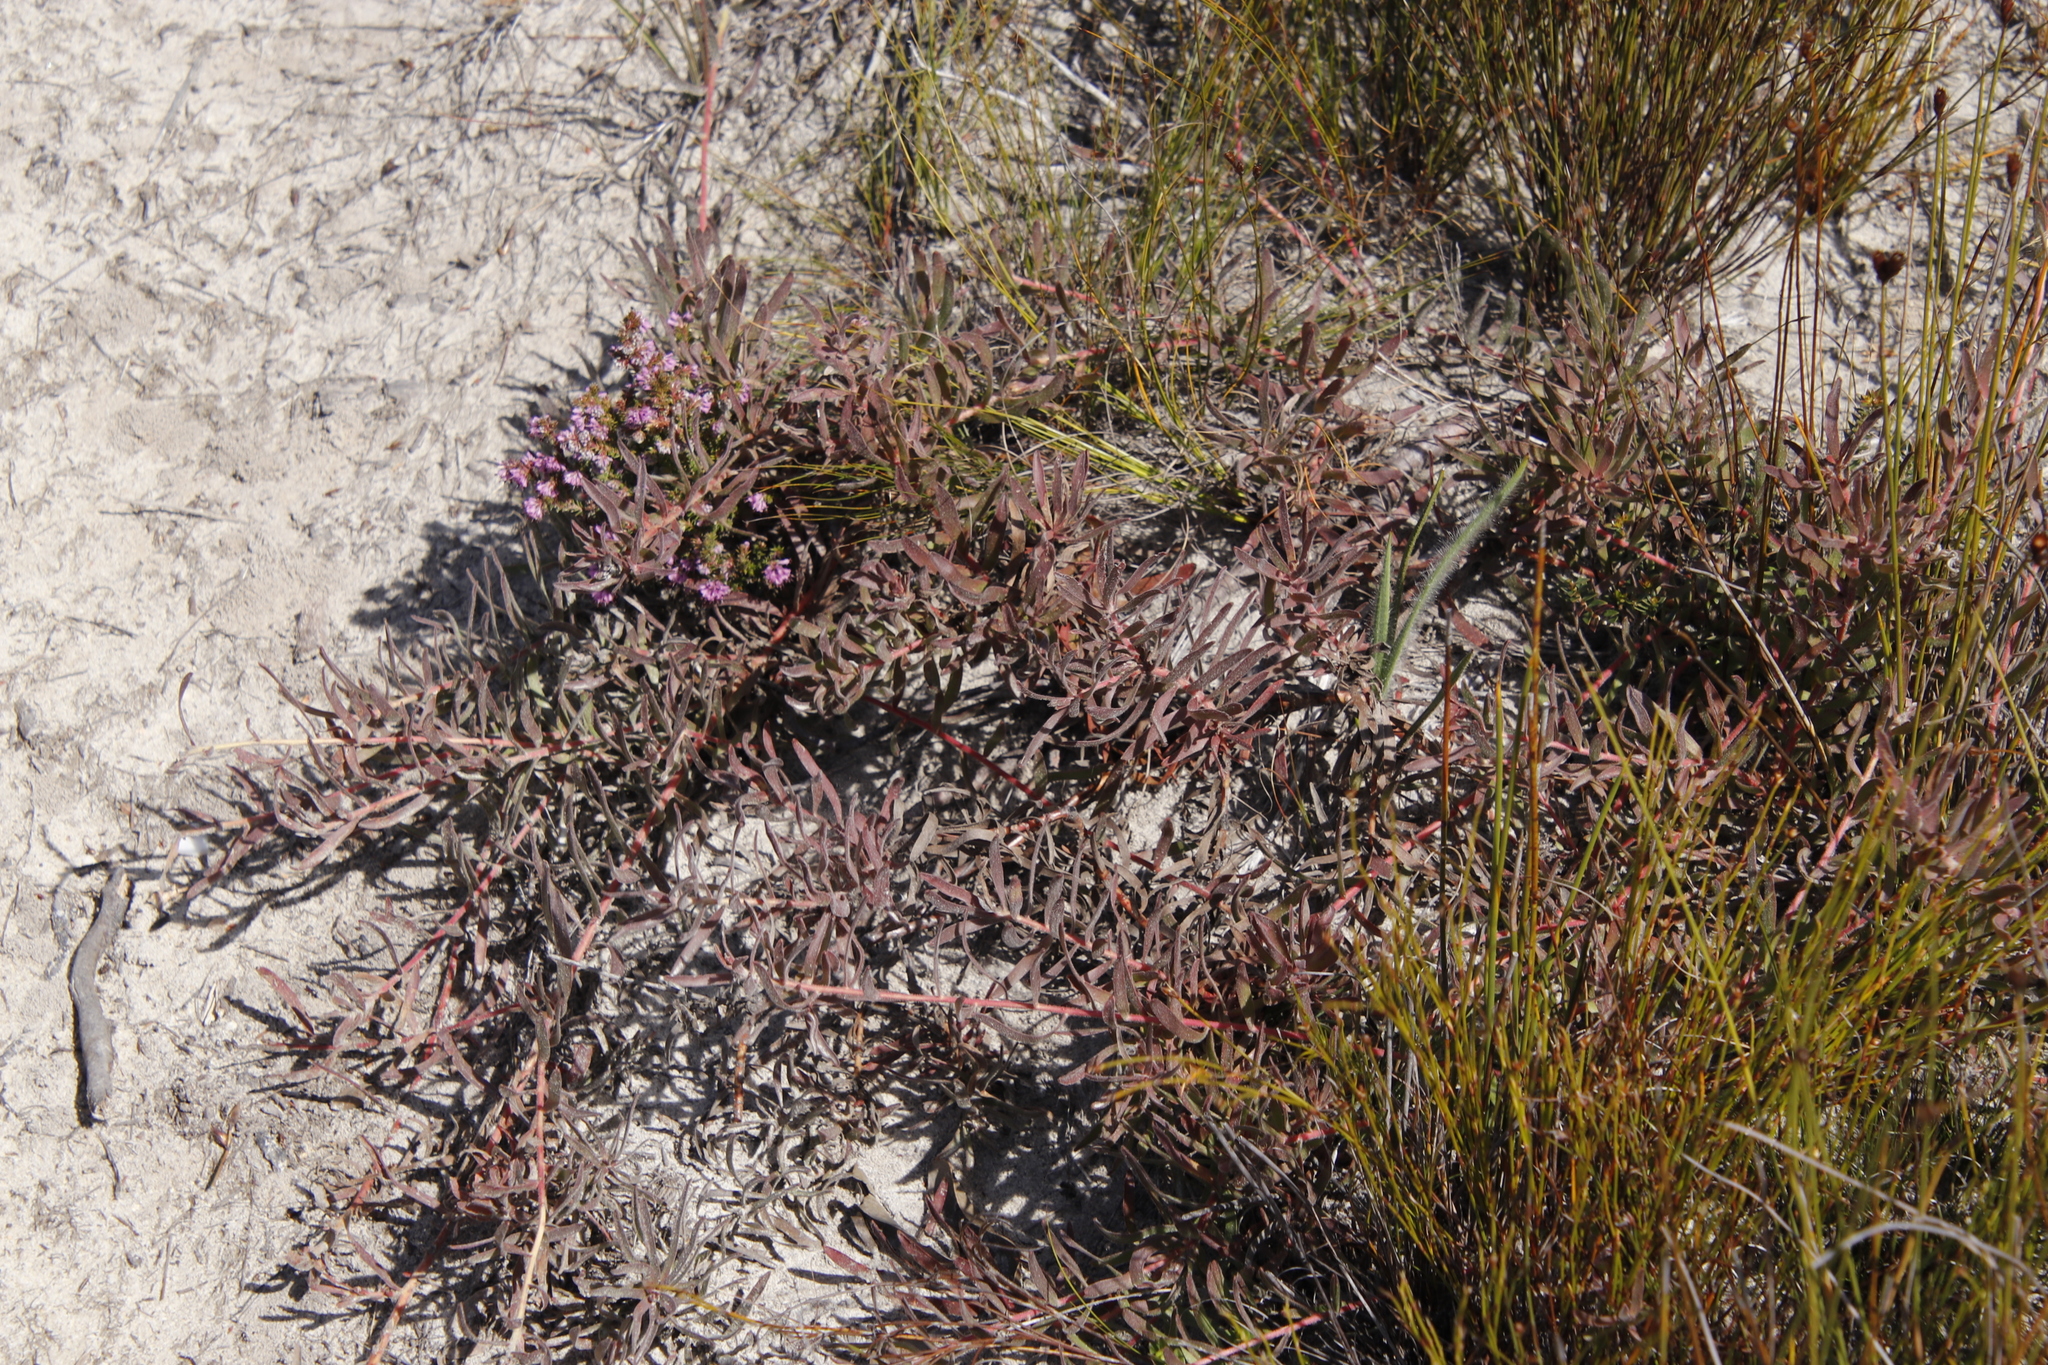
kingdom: Plantae
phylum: Tracheophyta
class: Magnoliopsida
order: Proteales
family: Proteaceae
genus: Leucospermum
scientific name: Leucospermum pedunculatum
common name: White-trailing pincushion
